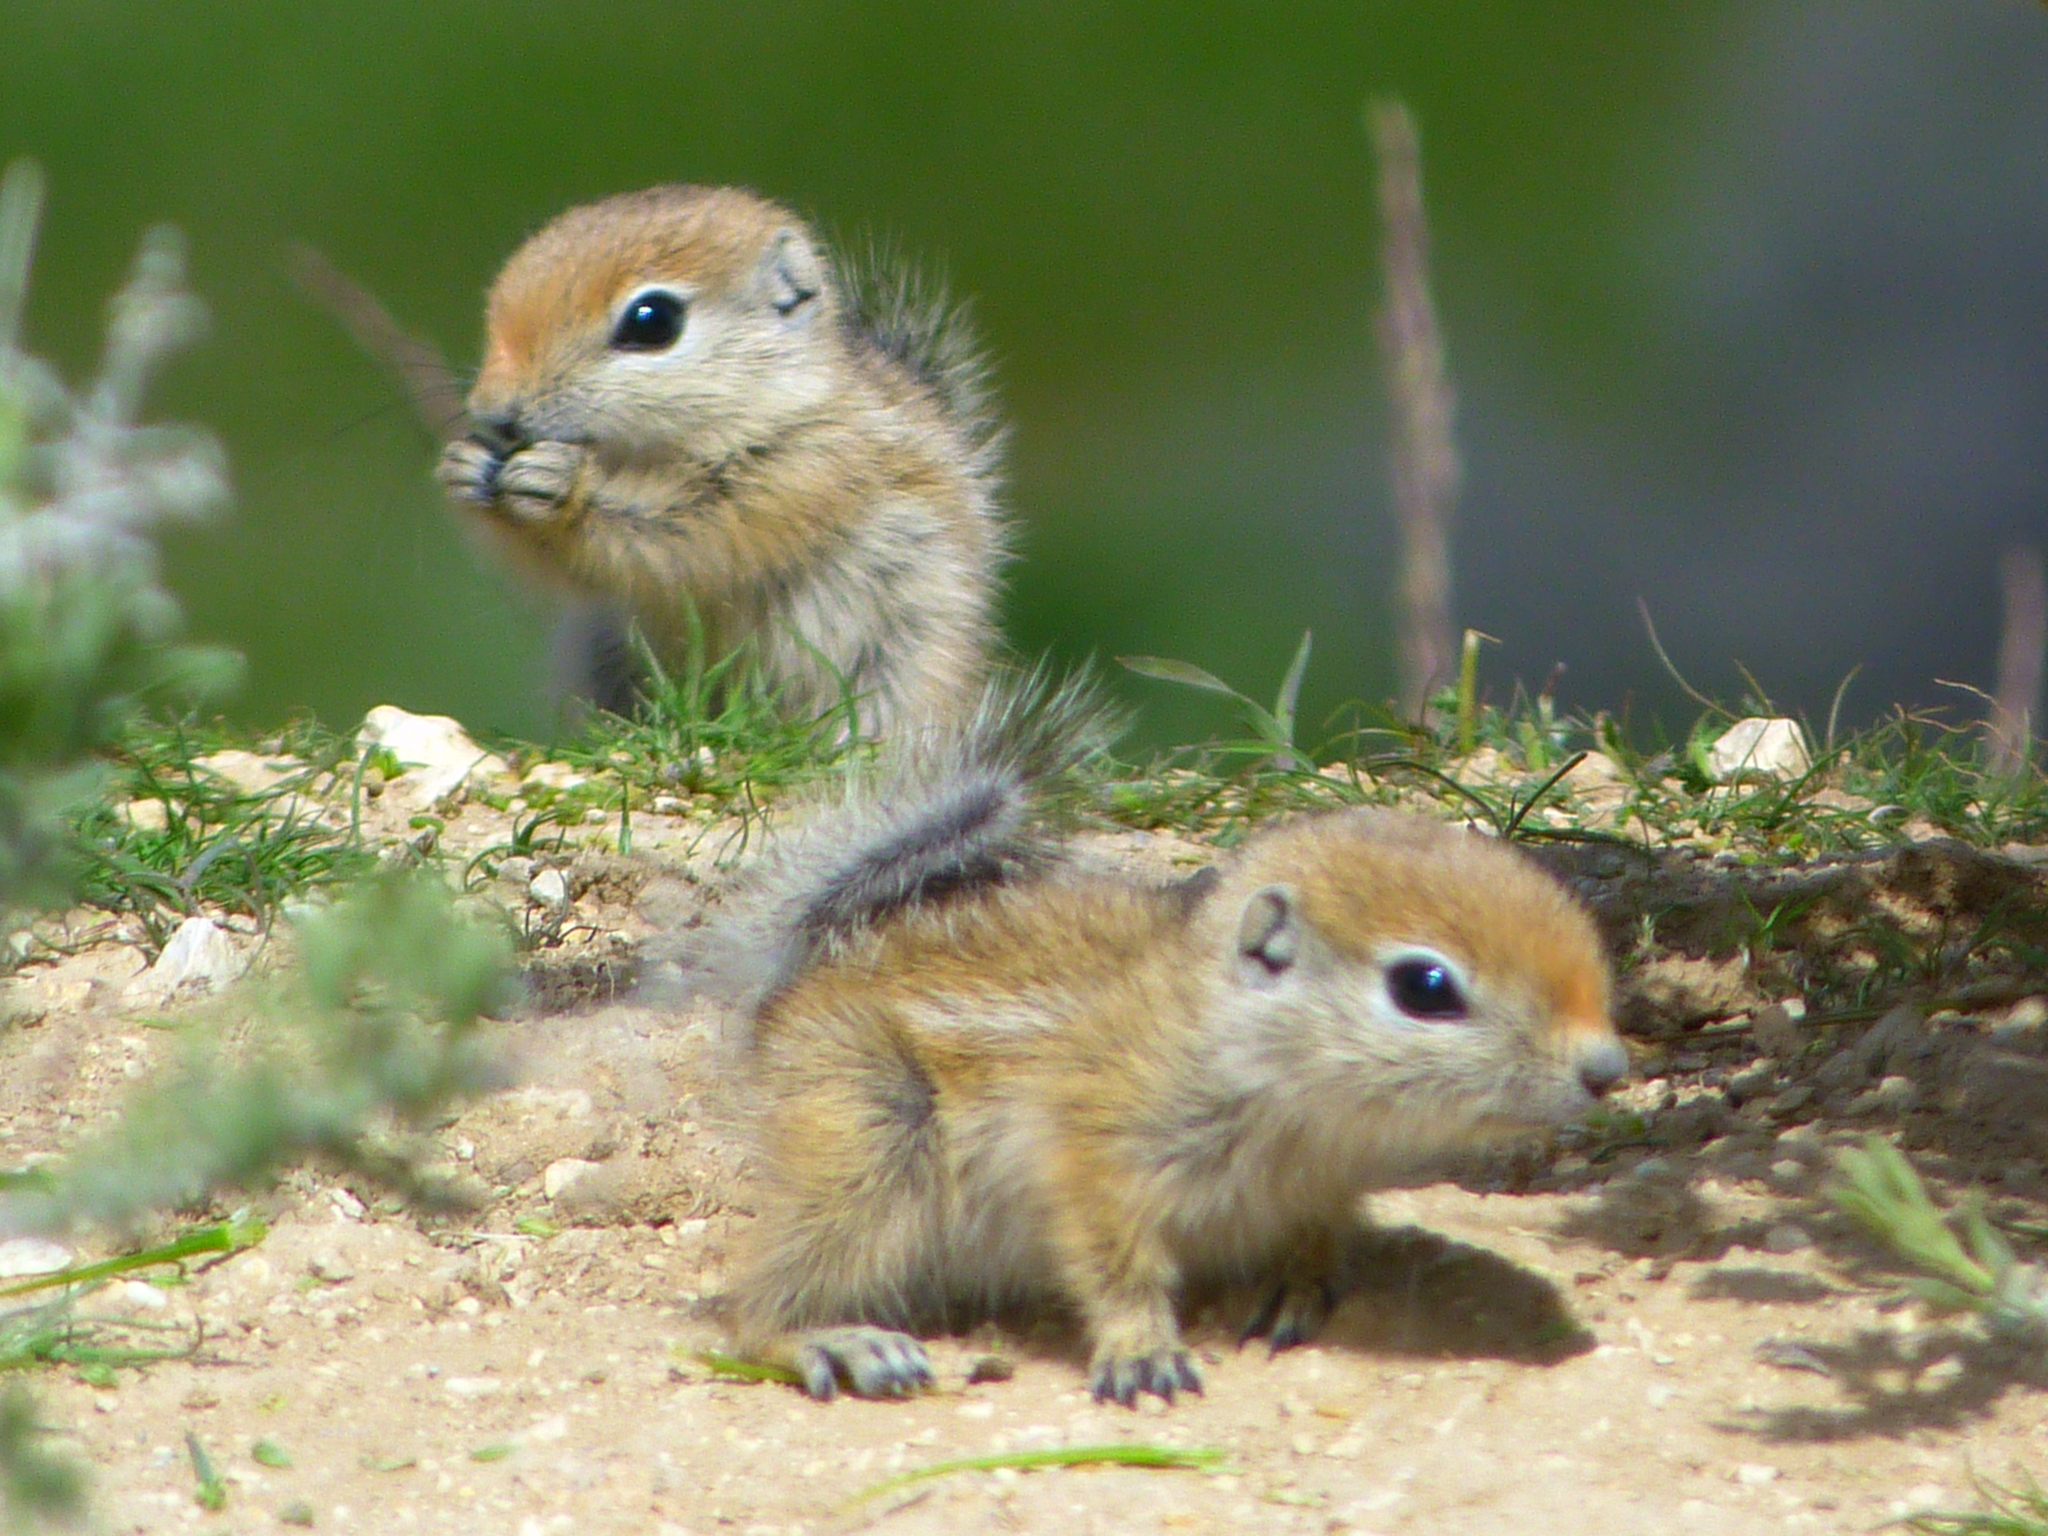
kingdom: Animalia
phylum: Chordata
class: Mammalia
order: Rodentia
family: Sciuridae
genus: Ammospermophilus
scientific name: Ammospermophilus nelsoni
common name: Nelson's antelope squirrel
